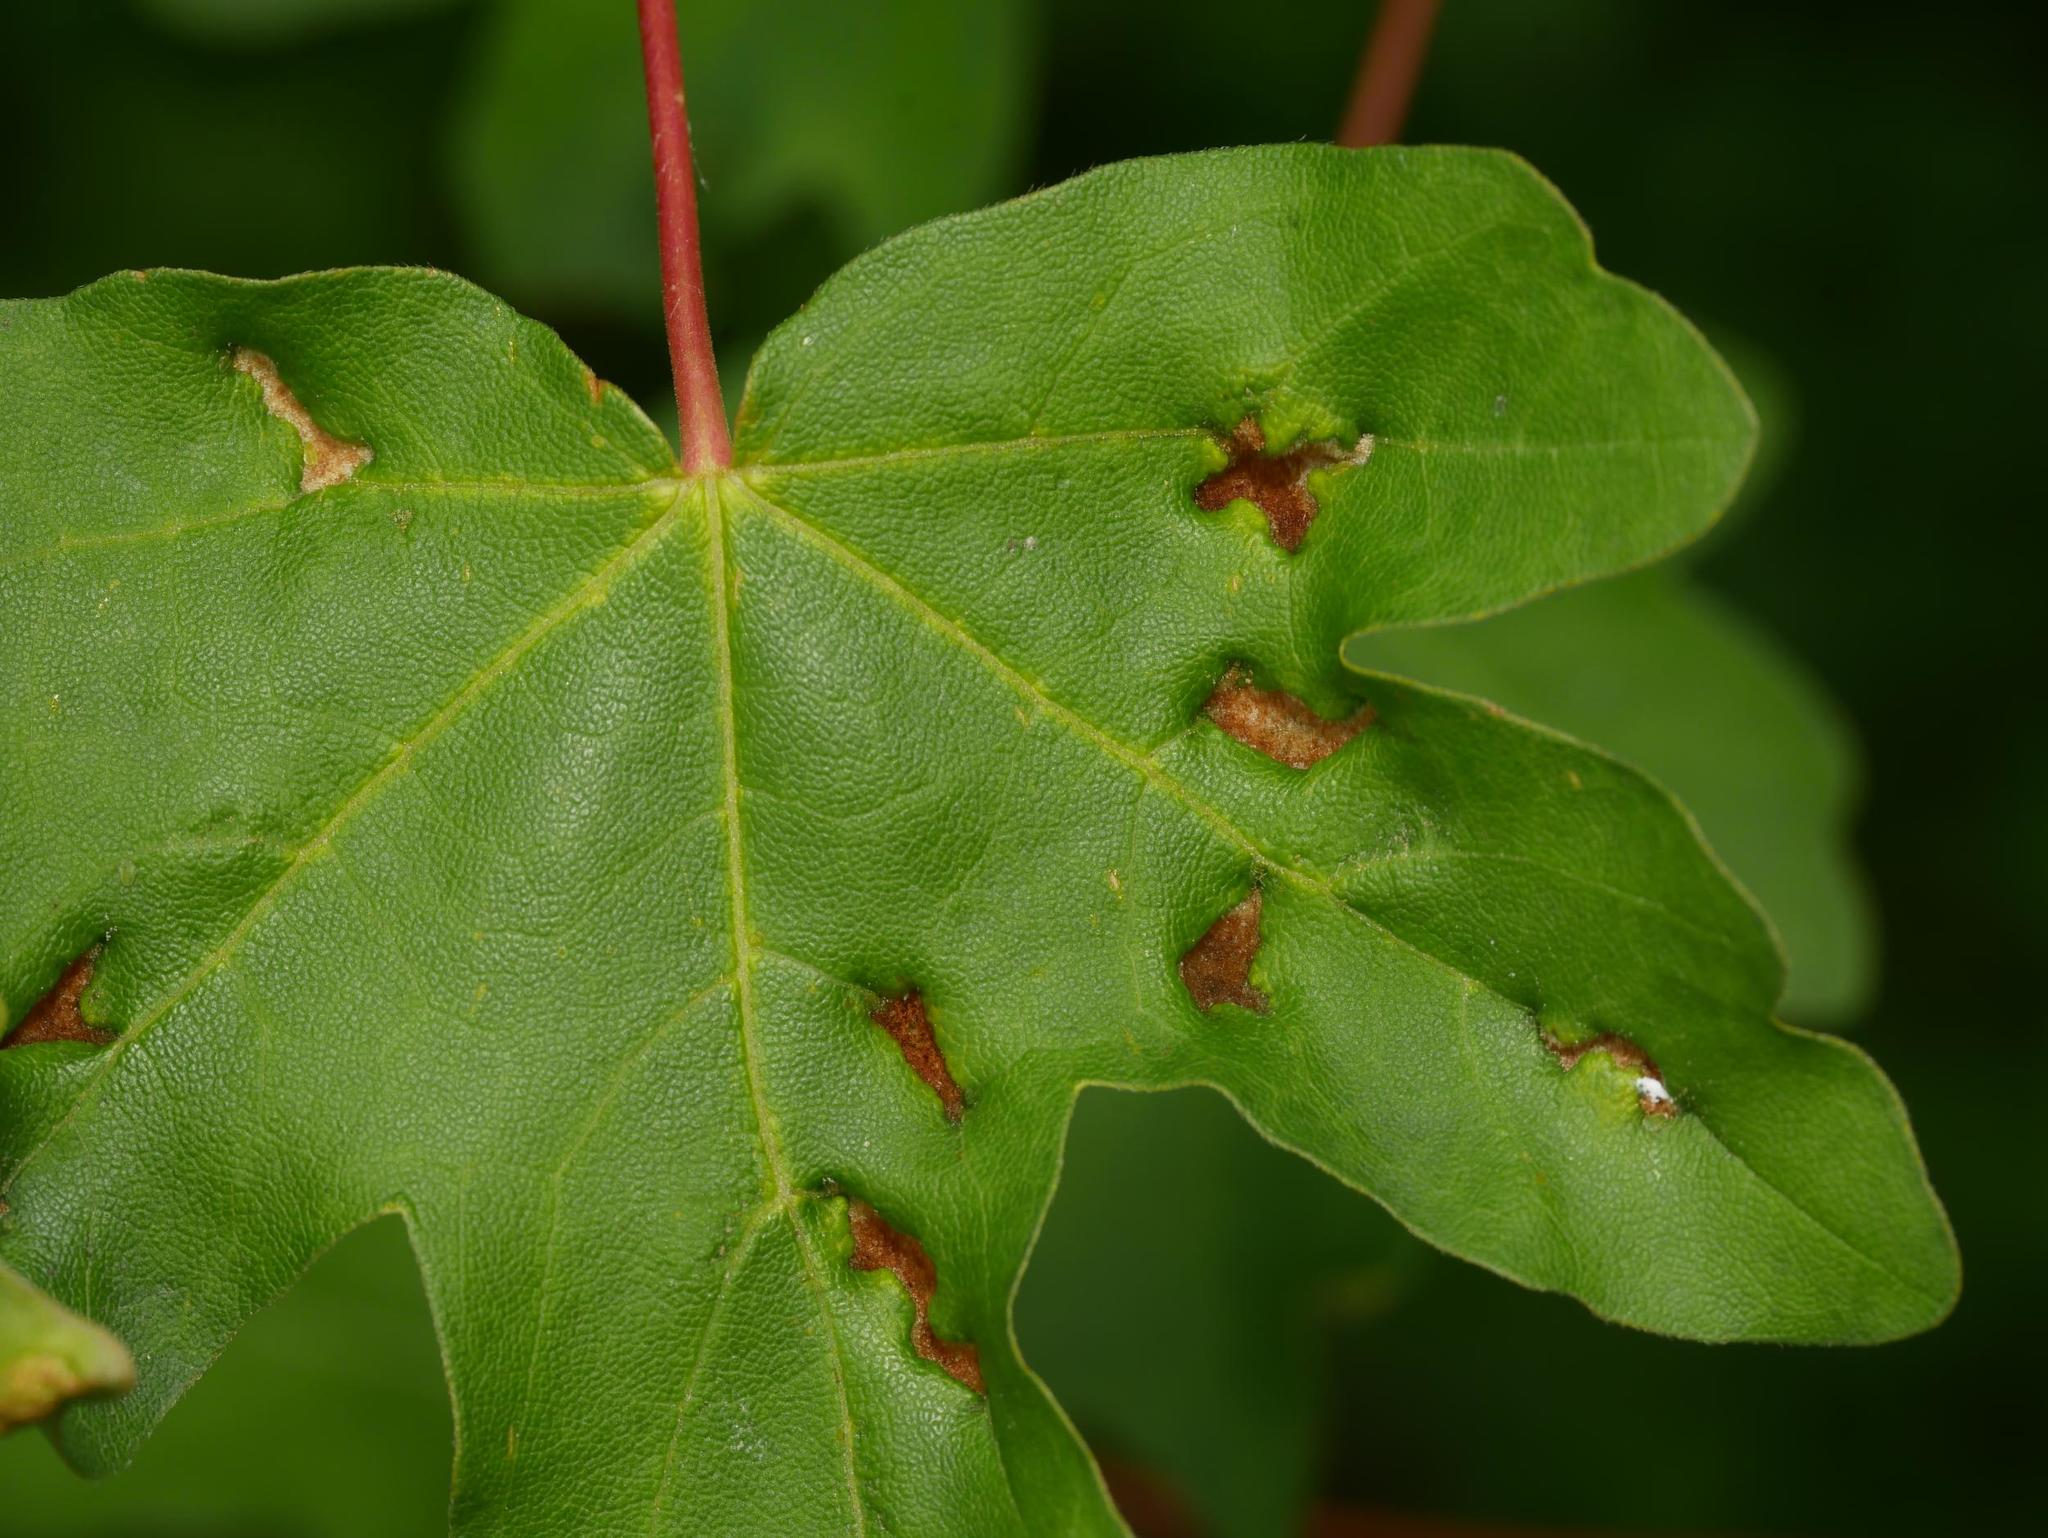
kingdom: Animalia
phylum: Arthropoda
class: Arachnida
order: Trombidiformes
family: Eriophyidae
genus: Aceria
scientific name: Aceria carinifex
